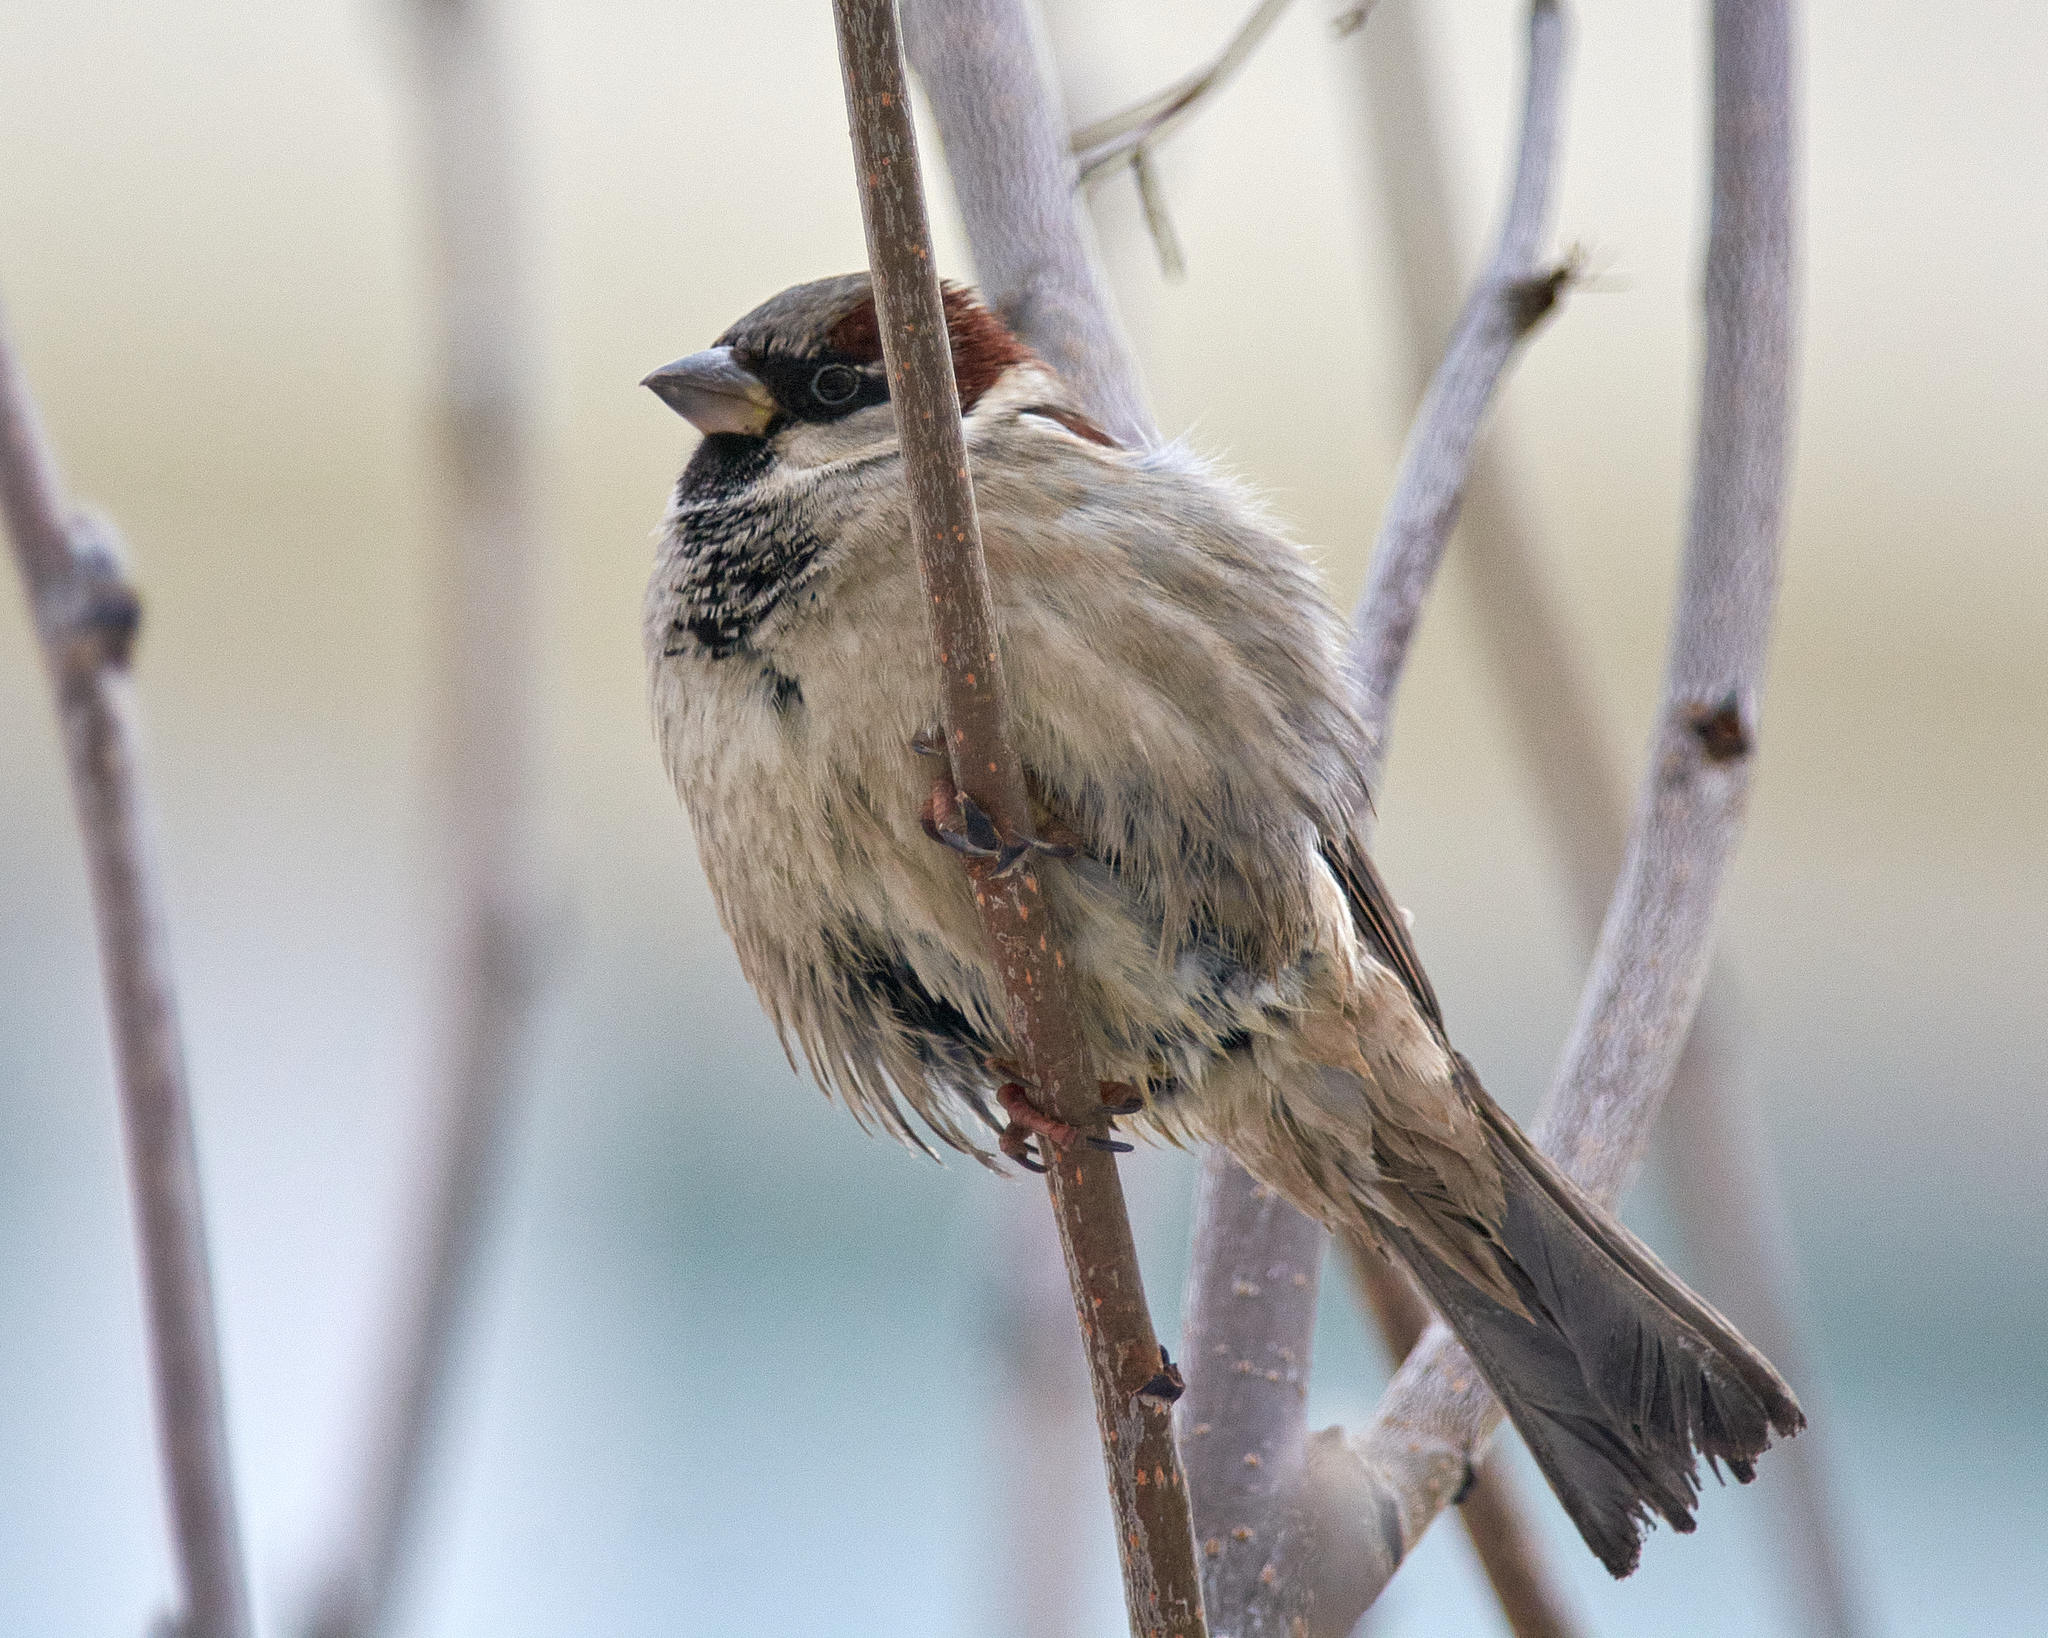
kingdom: Animalia
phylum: Chordata
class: Aves
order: Passeriformes
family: Passeridae
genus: Passer
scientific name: Passer domesticus
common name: House sparrow
